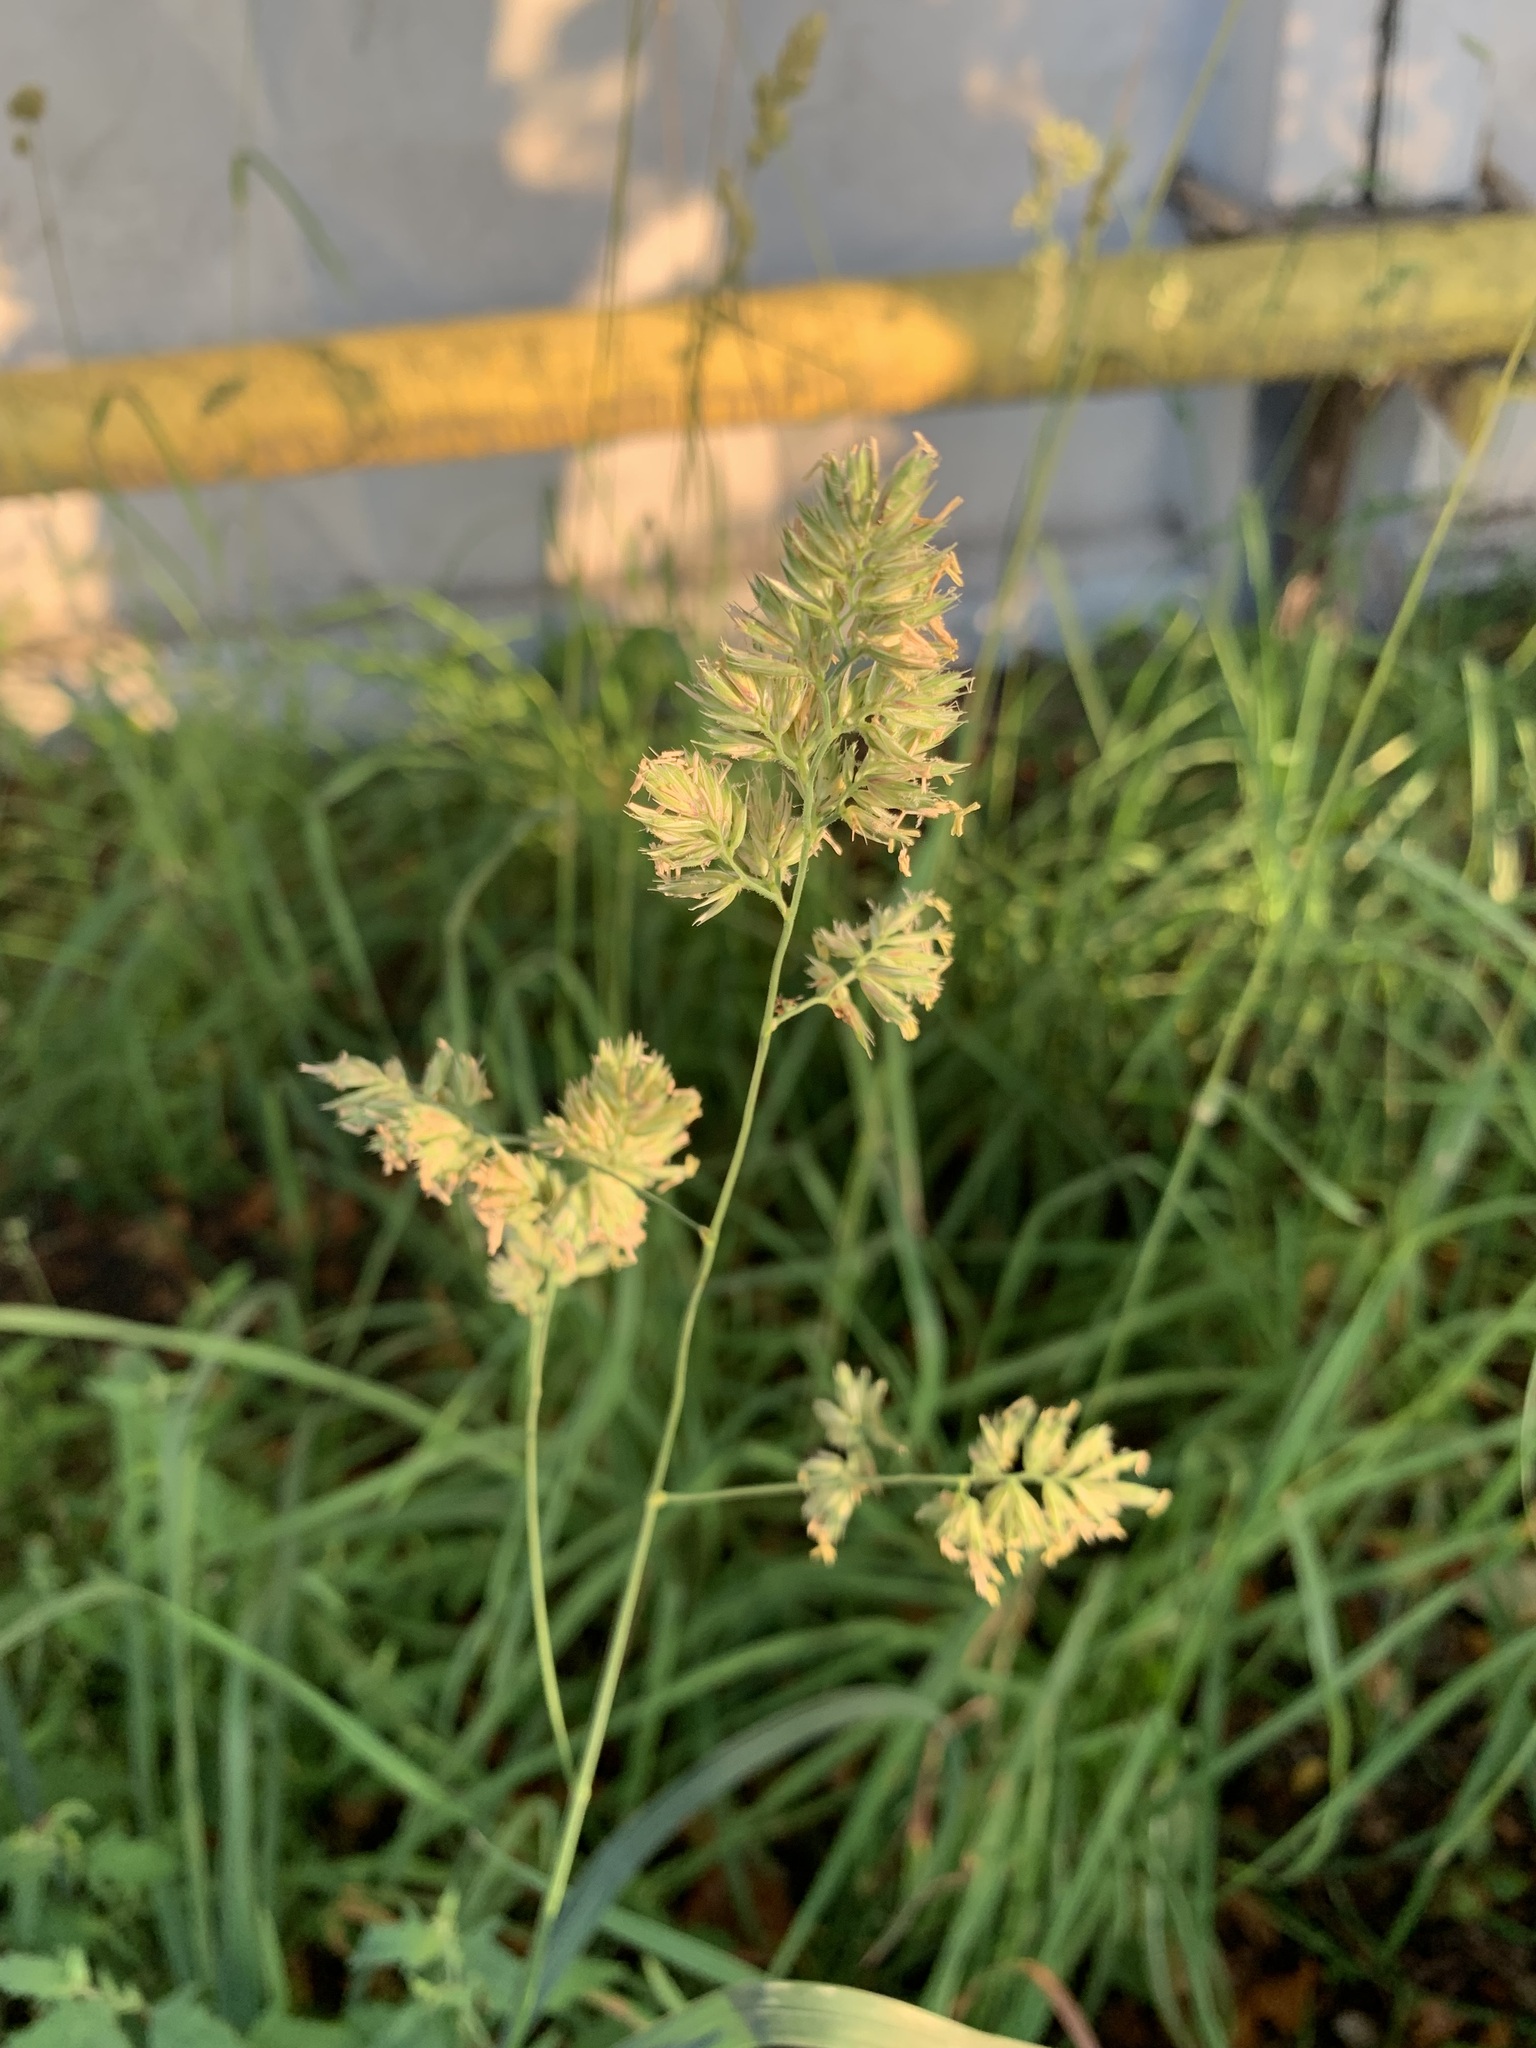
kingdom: Plantae
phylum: Tracheophyta
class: Liliopsida
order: Poales
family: Poaceae
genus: Dactylis
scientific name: Dactylis glomerata
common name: Orchardgrass
